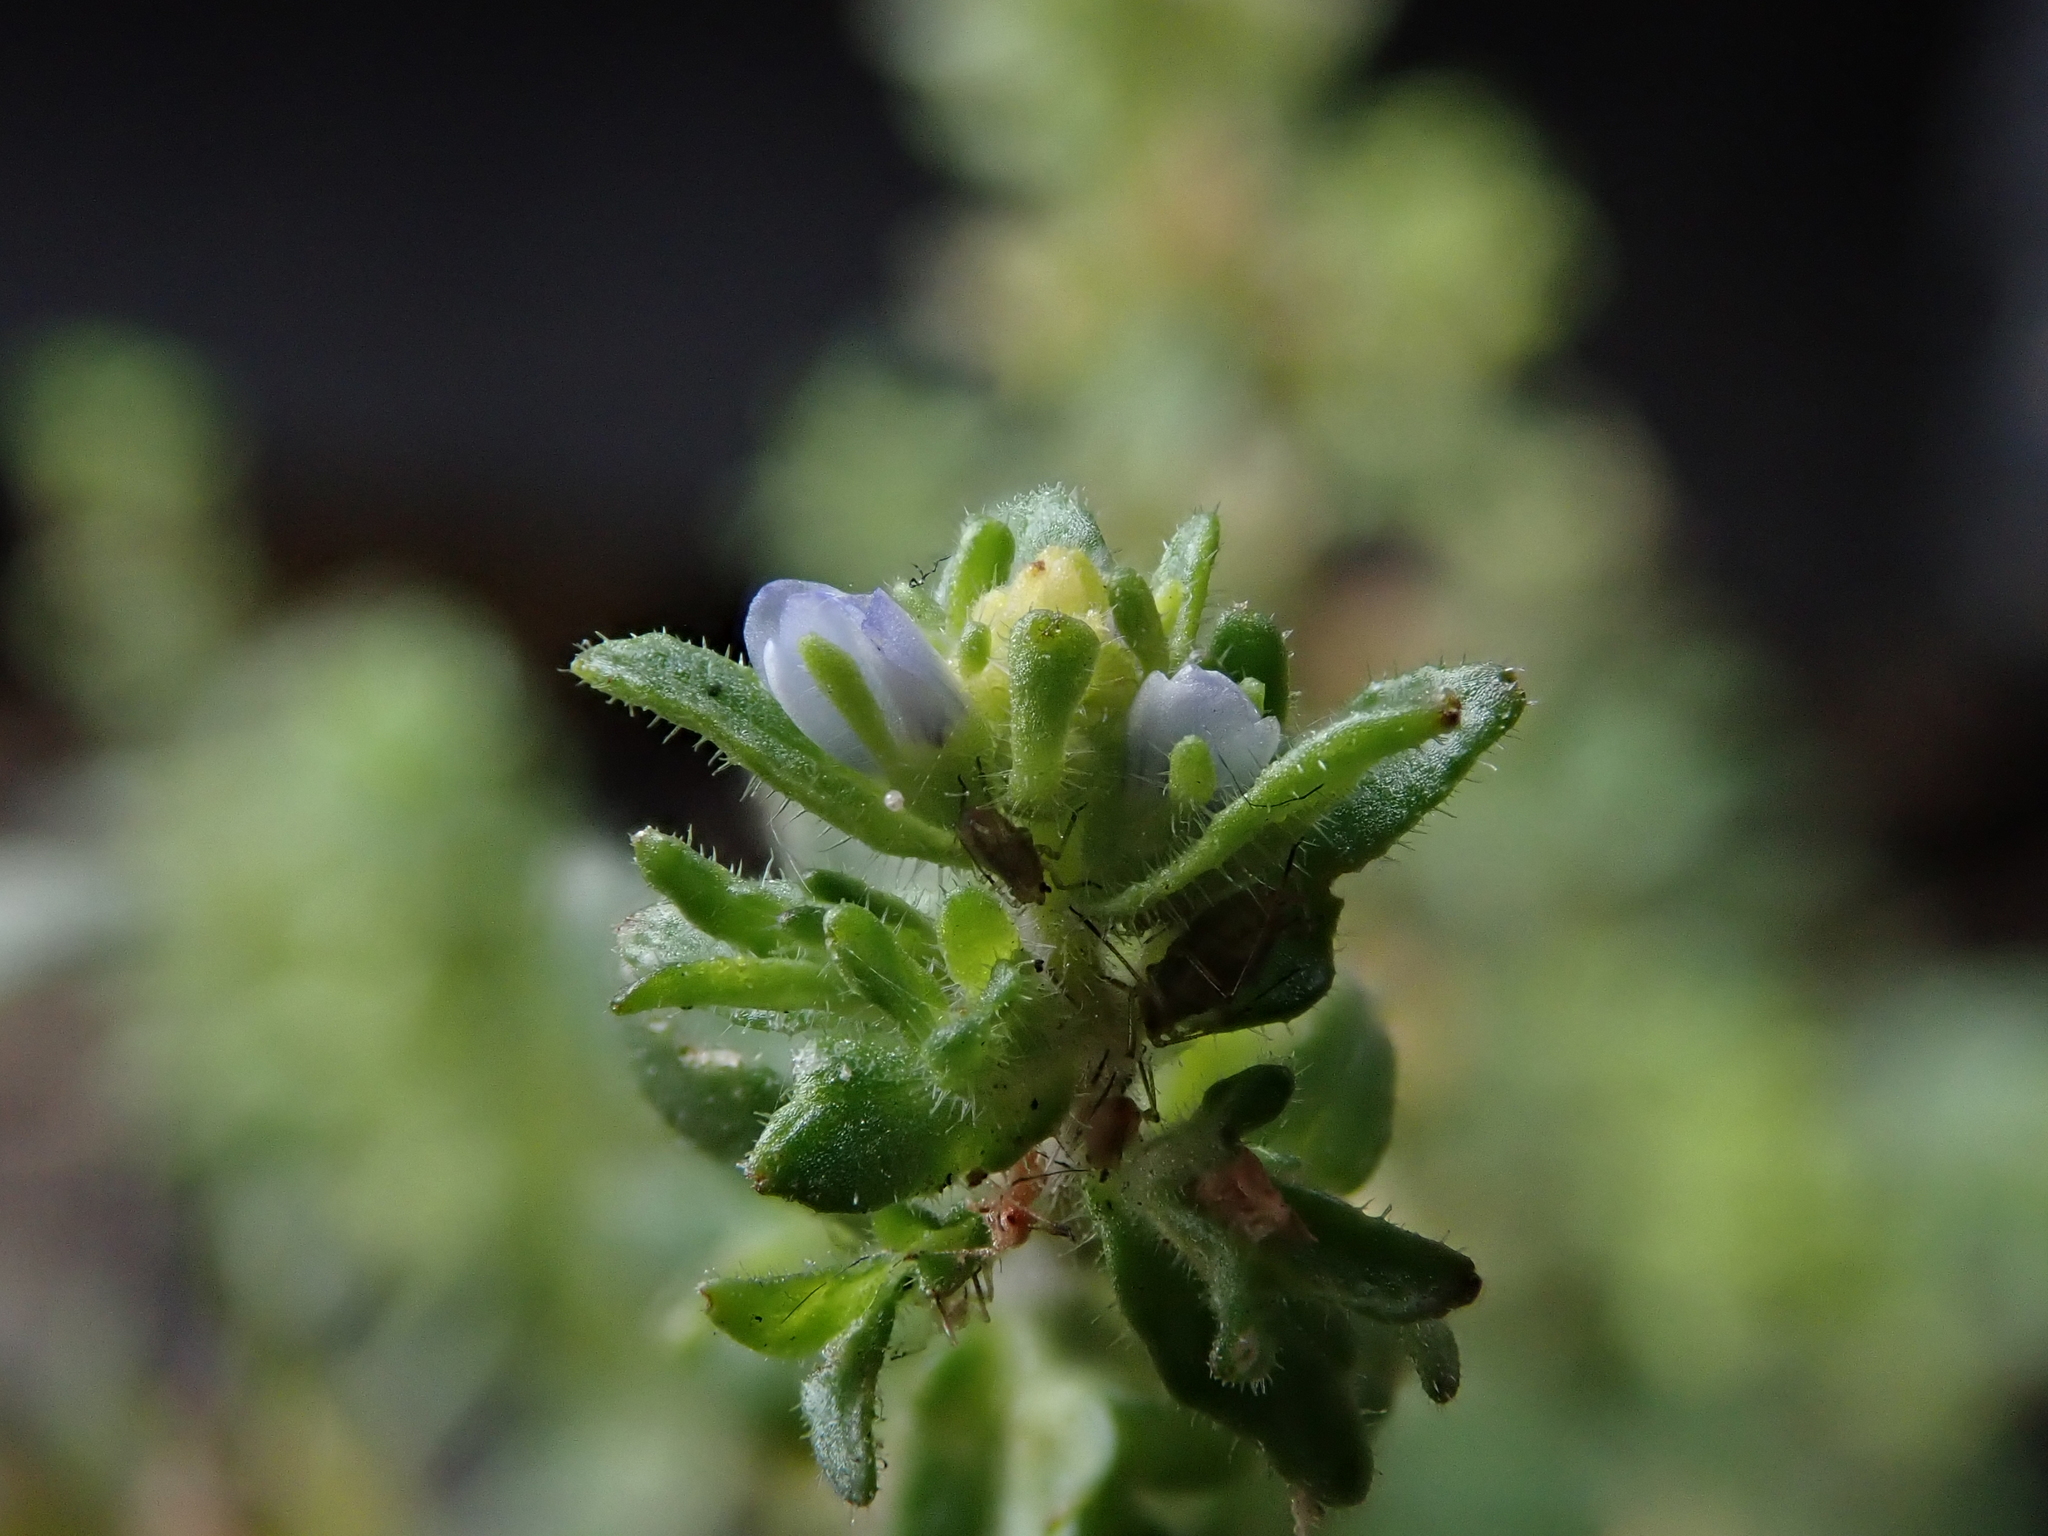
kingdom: Plantae
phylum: Tracheophyta
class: Magnoliopsida
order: Lamiales
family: Plantaginaceae
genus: Veronica
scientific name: Veronica arvensis
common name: Corn speedwell
